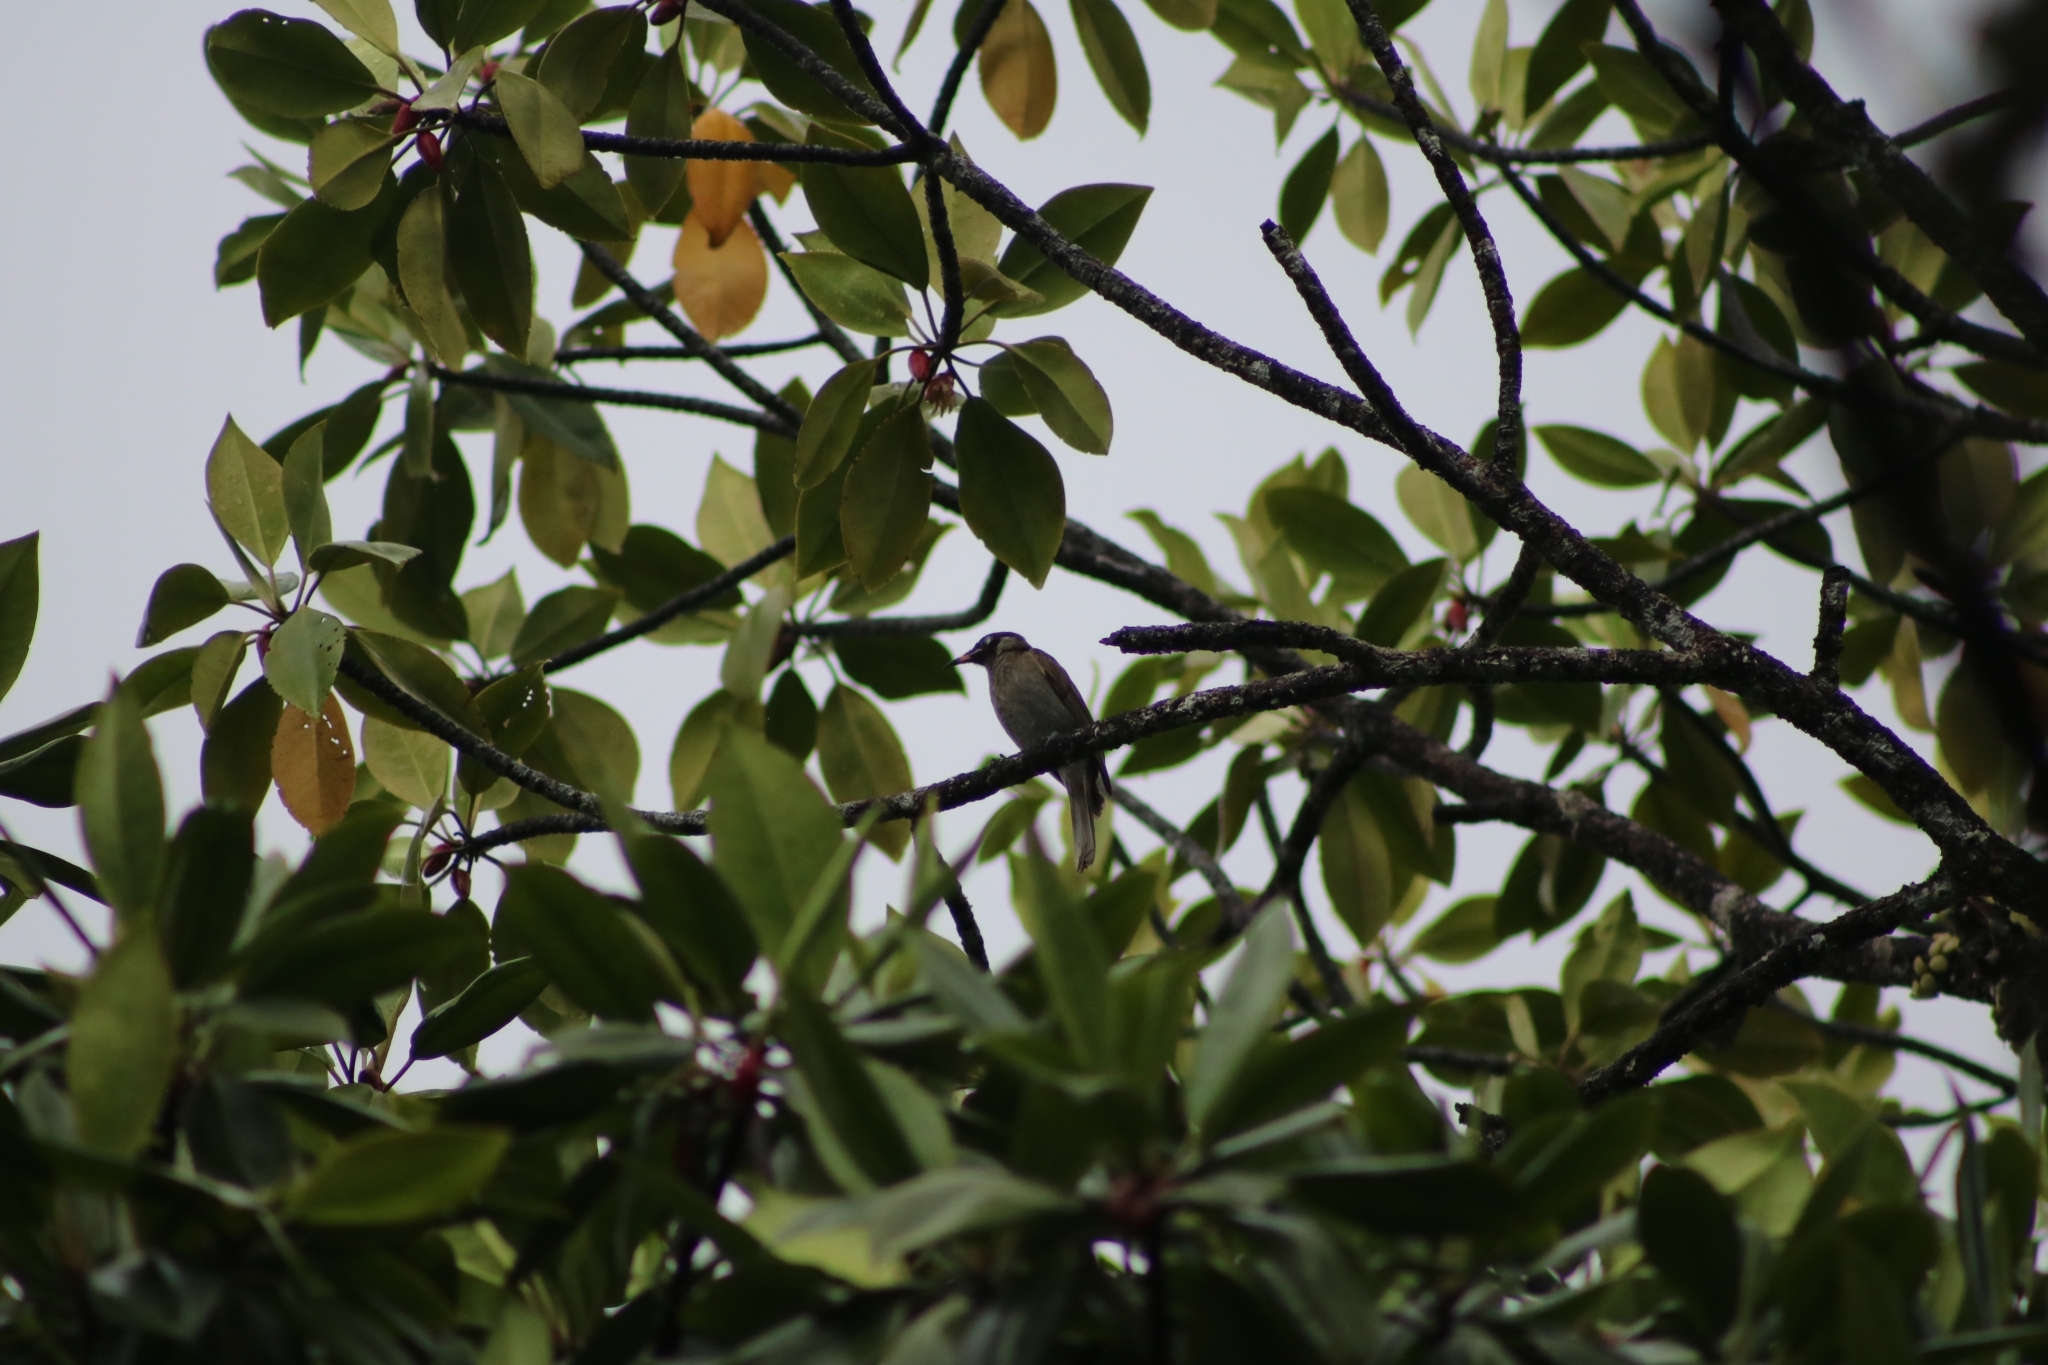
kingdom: Animalia
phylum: Chordata
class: Aves
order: Passeriformes
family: Meliphagidae
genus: Bolemoreus
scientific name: Bolemoreus frenatus
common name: Bridled honeyeater
